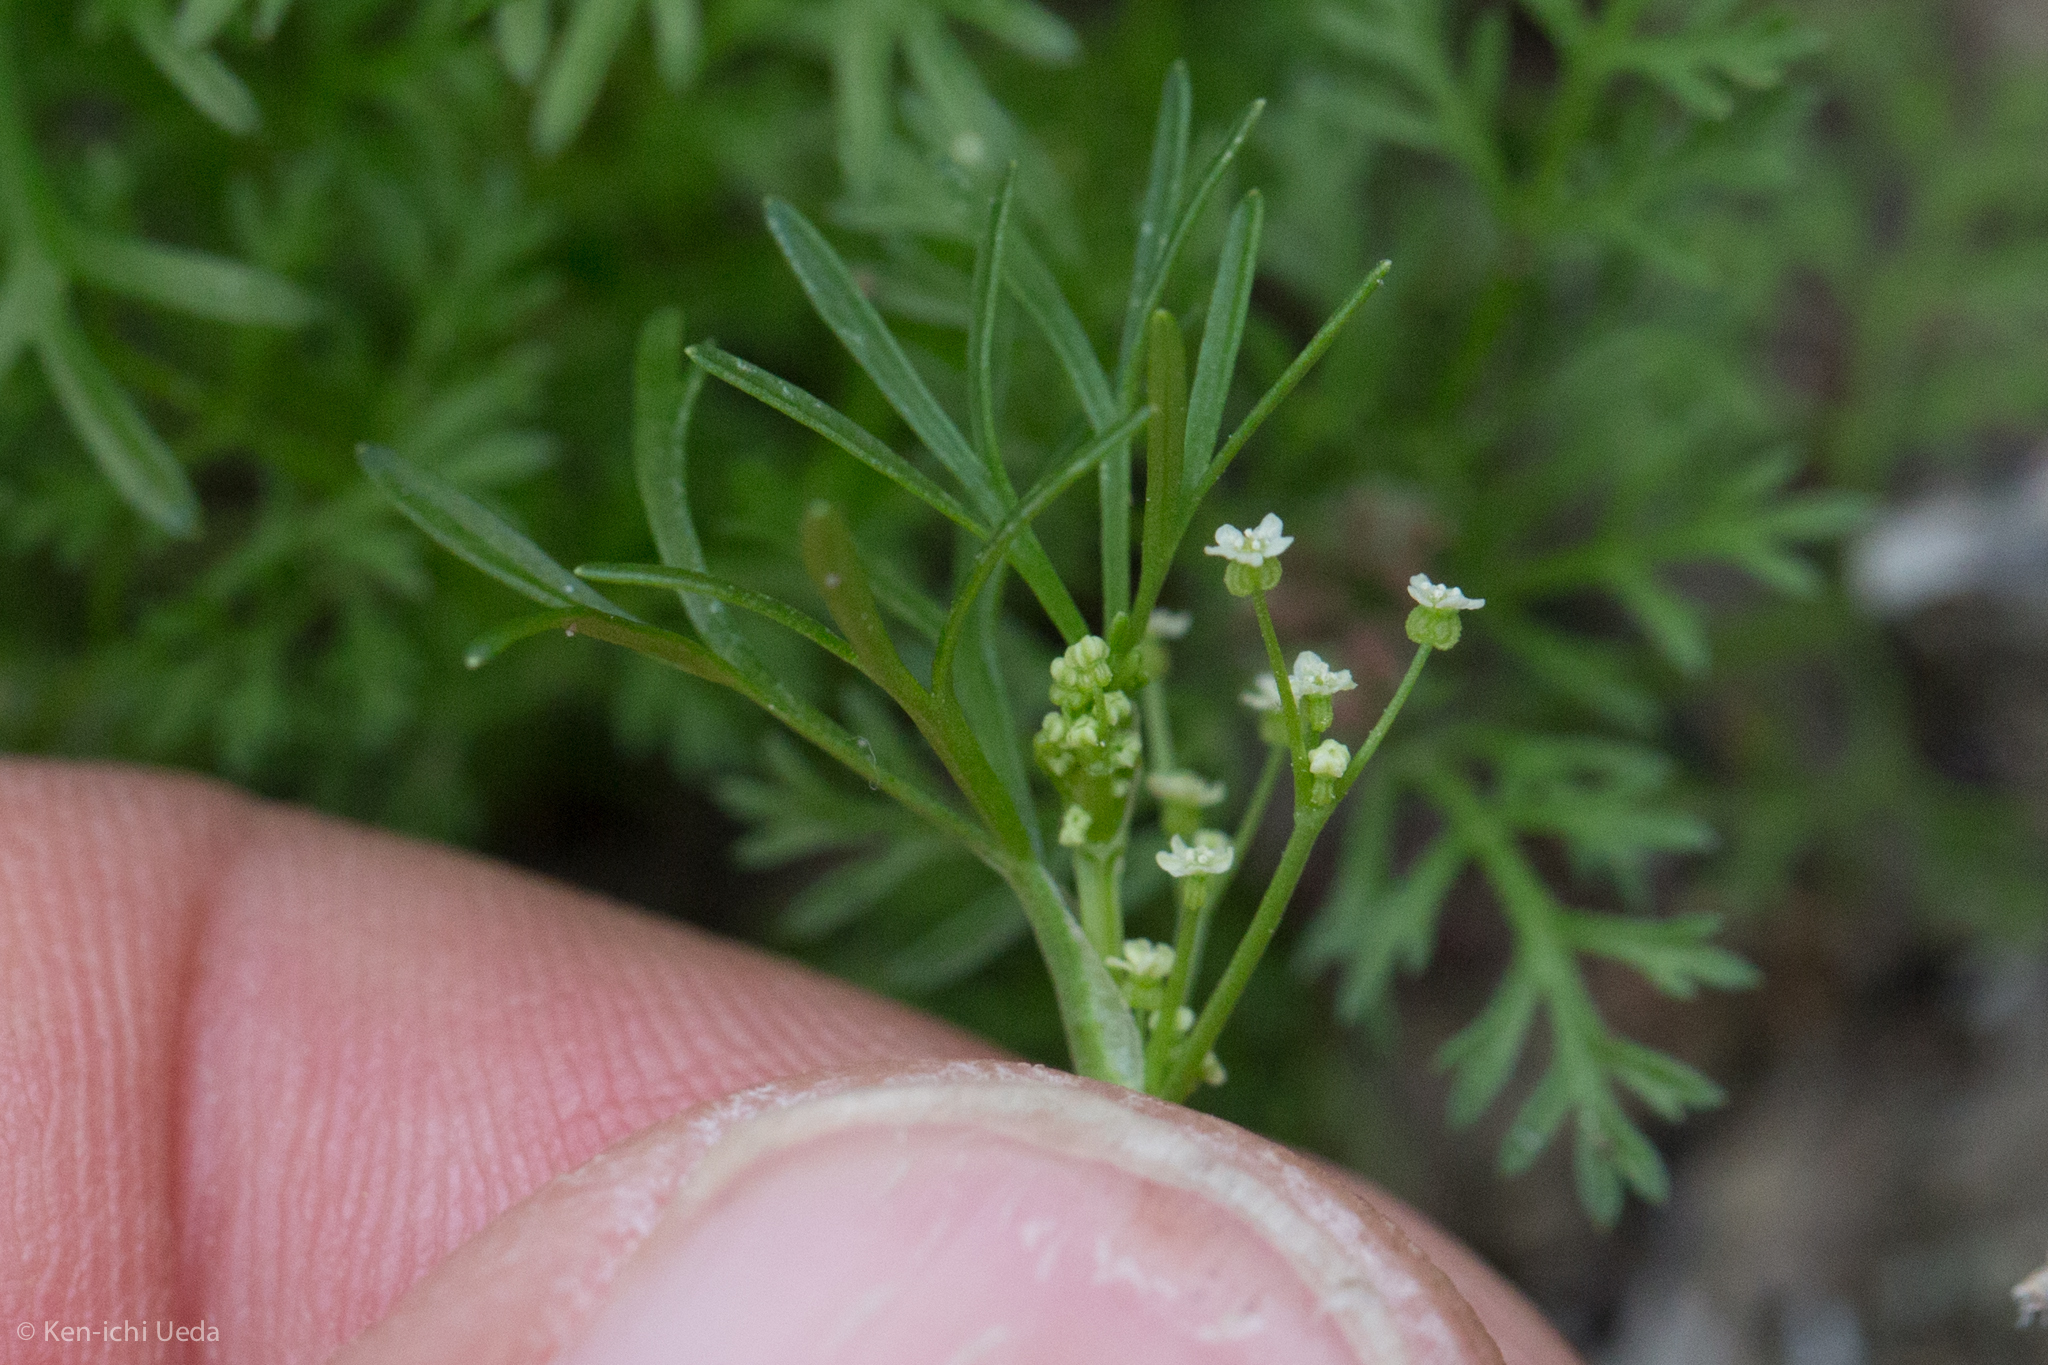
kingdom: Plantae
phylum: Tracheophyta
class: Magnoliopsida
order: Apiales
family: Apiaceae
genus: Apiastrum
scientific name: Apiastrum angustifolium
